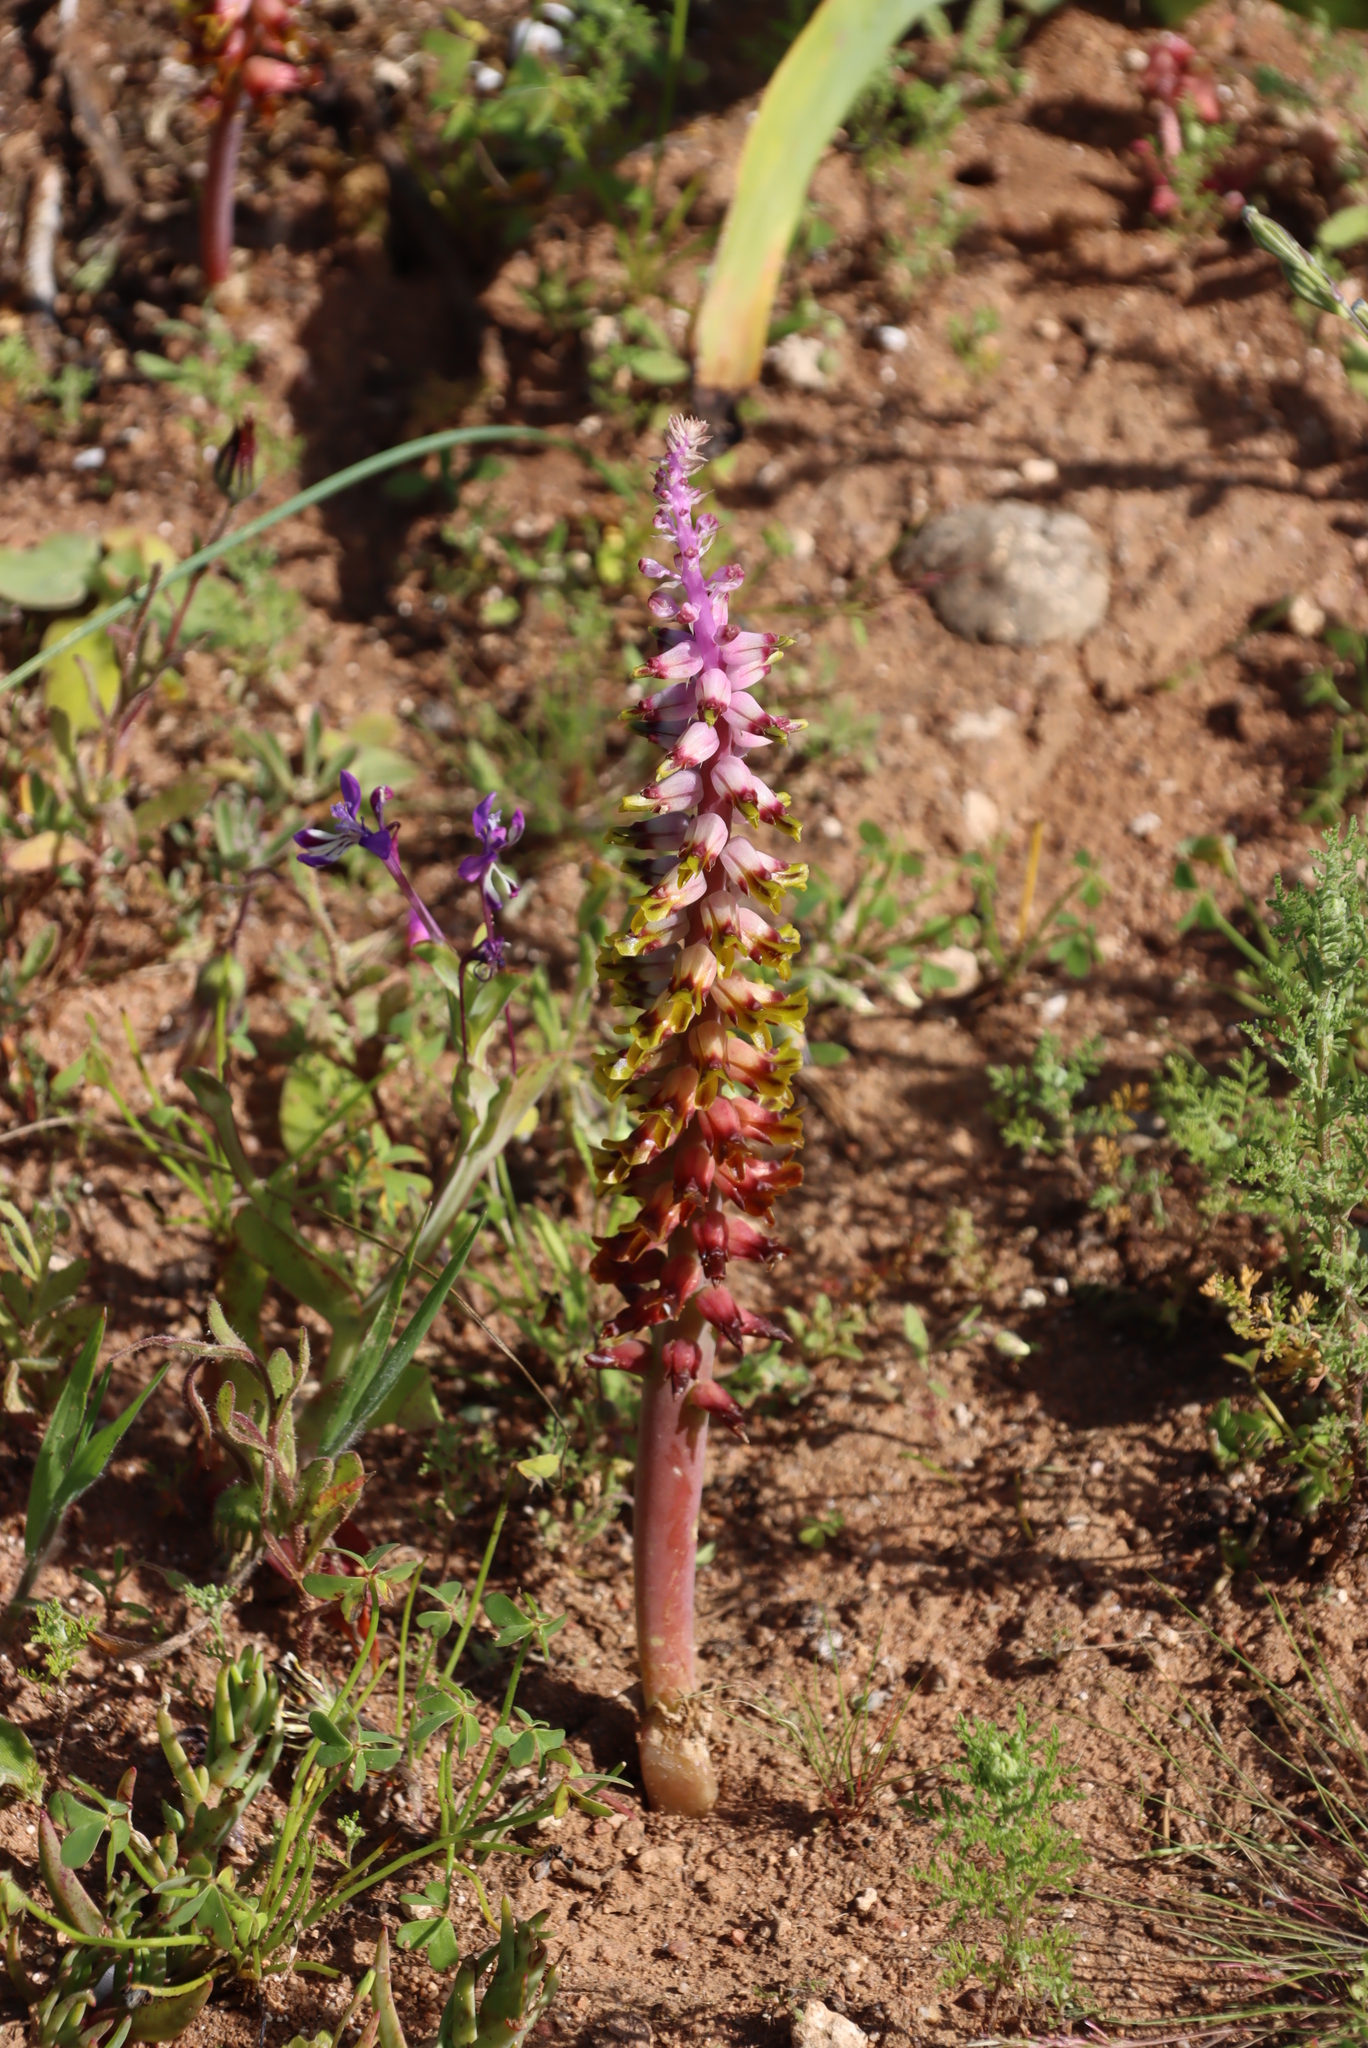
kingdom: Plantae
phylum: Tracheophyta
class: Liliopsida
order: Asparagales
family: Asparagaceae
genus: Lachenalia
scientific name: Lachenalia mutabilis
